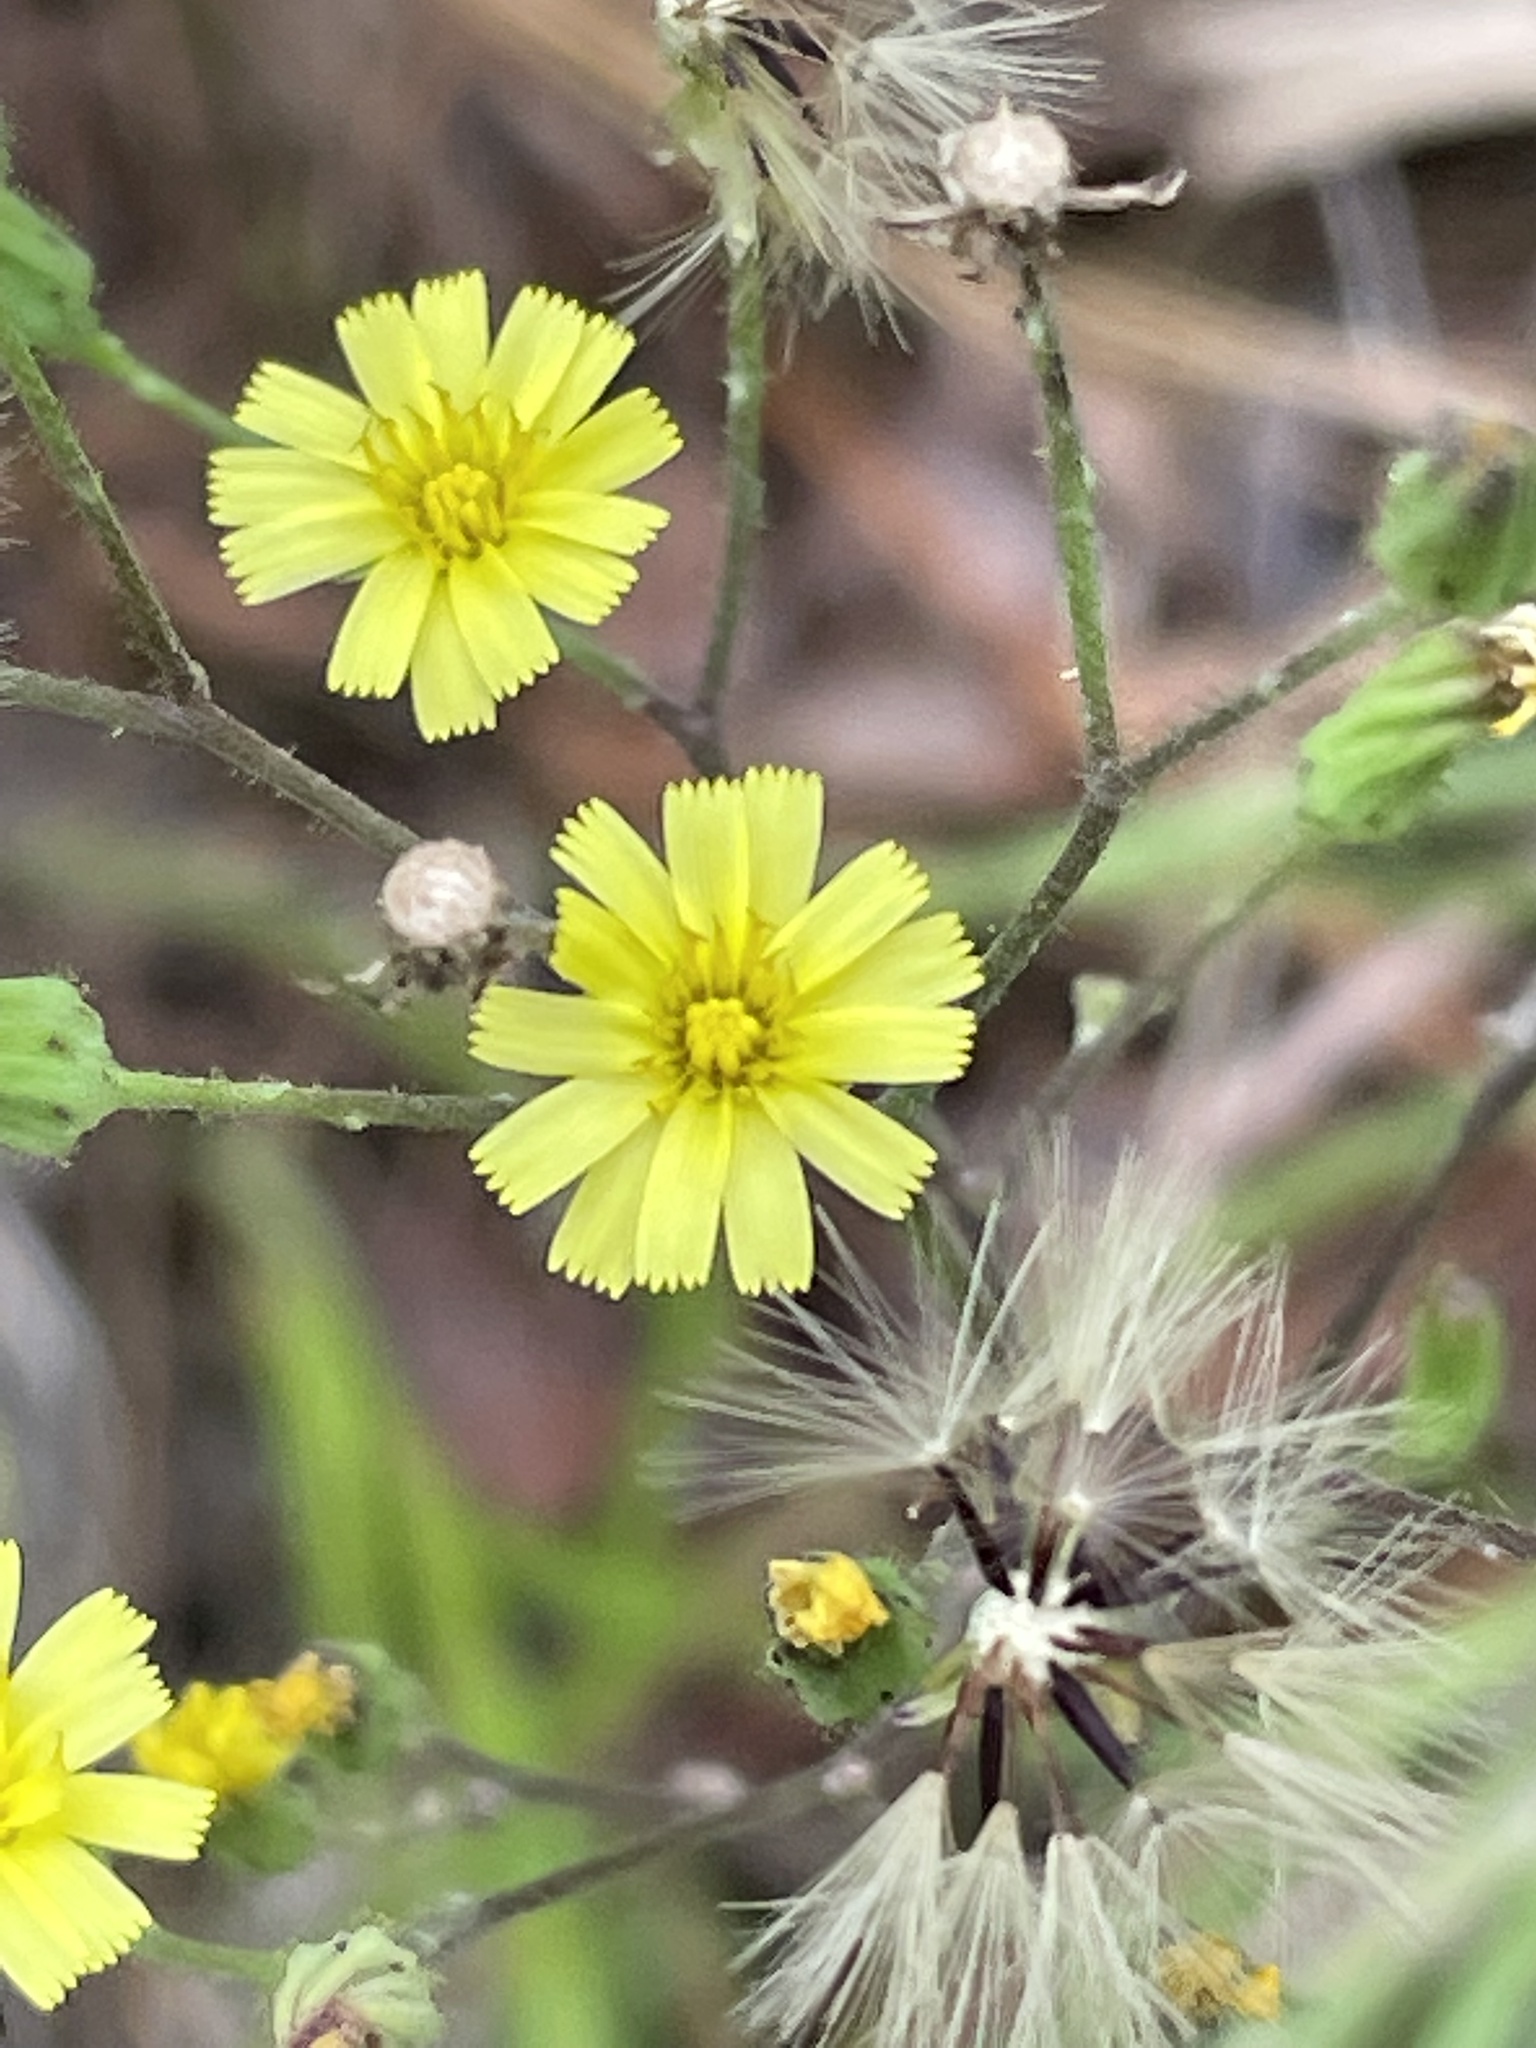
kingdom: Plantae
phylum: Tracheophyta
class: Magnoliopsida
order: Asterales
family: Asteraceae
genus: Hieracium
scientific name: Hieracium gronovii
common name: Beaked hawkweed
